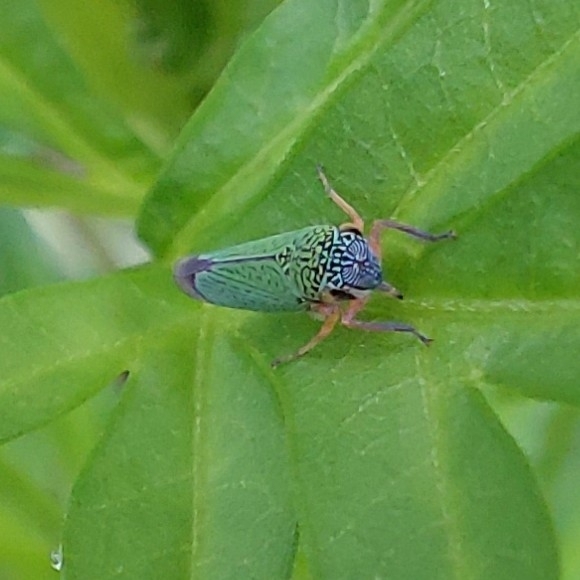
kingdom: Animalia
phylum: Arthropoda
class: Insecta
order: Hemiptera
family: Cicadellidae
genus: Versigonalia
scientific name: Versigonalia ruficauda
